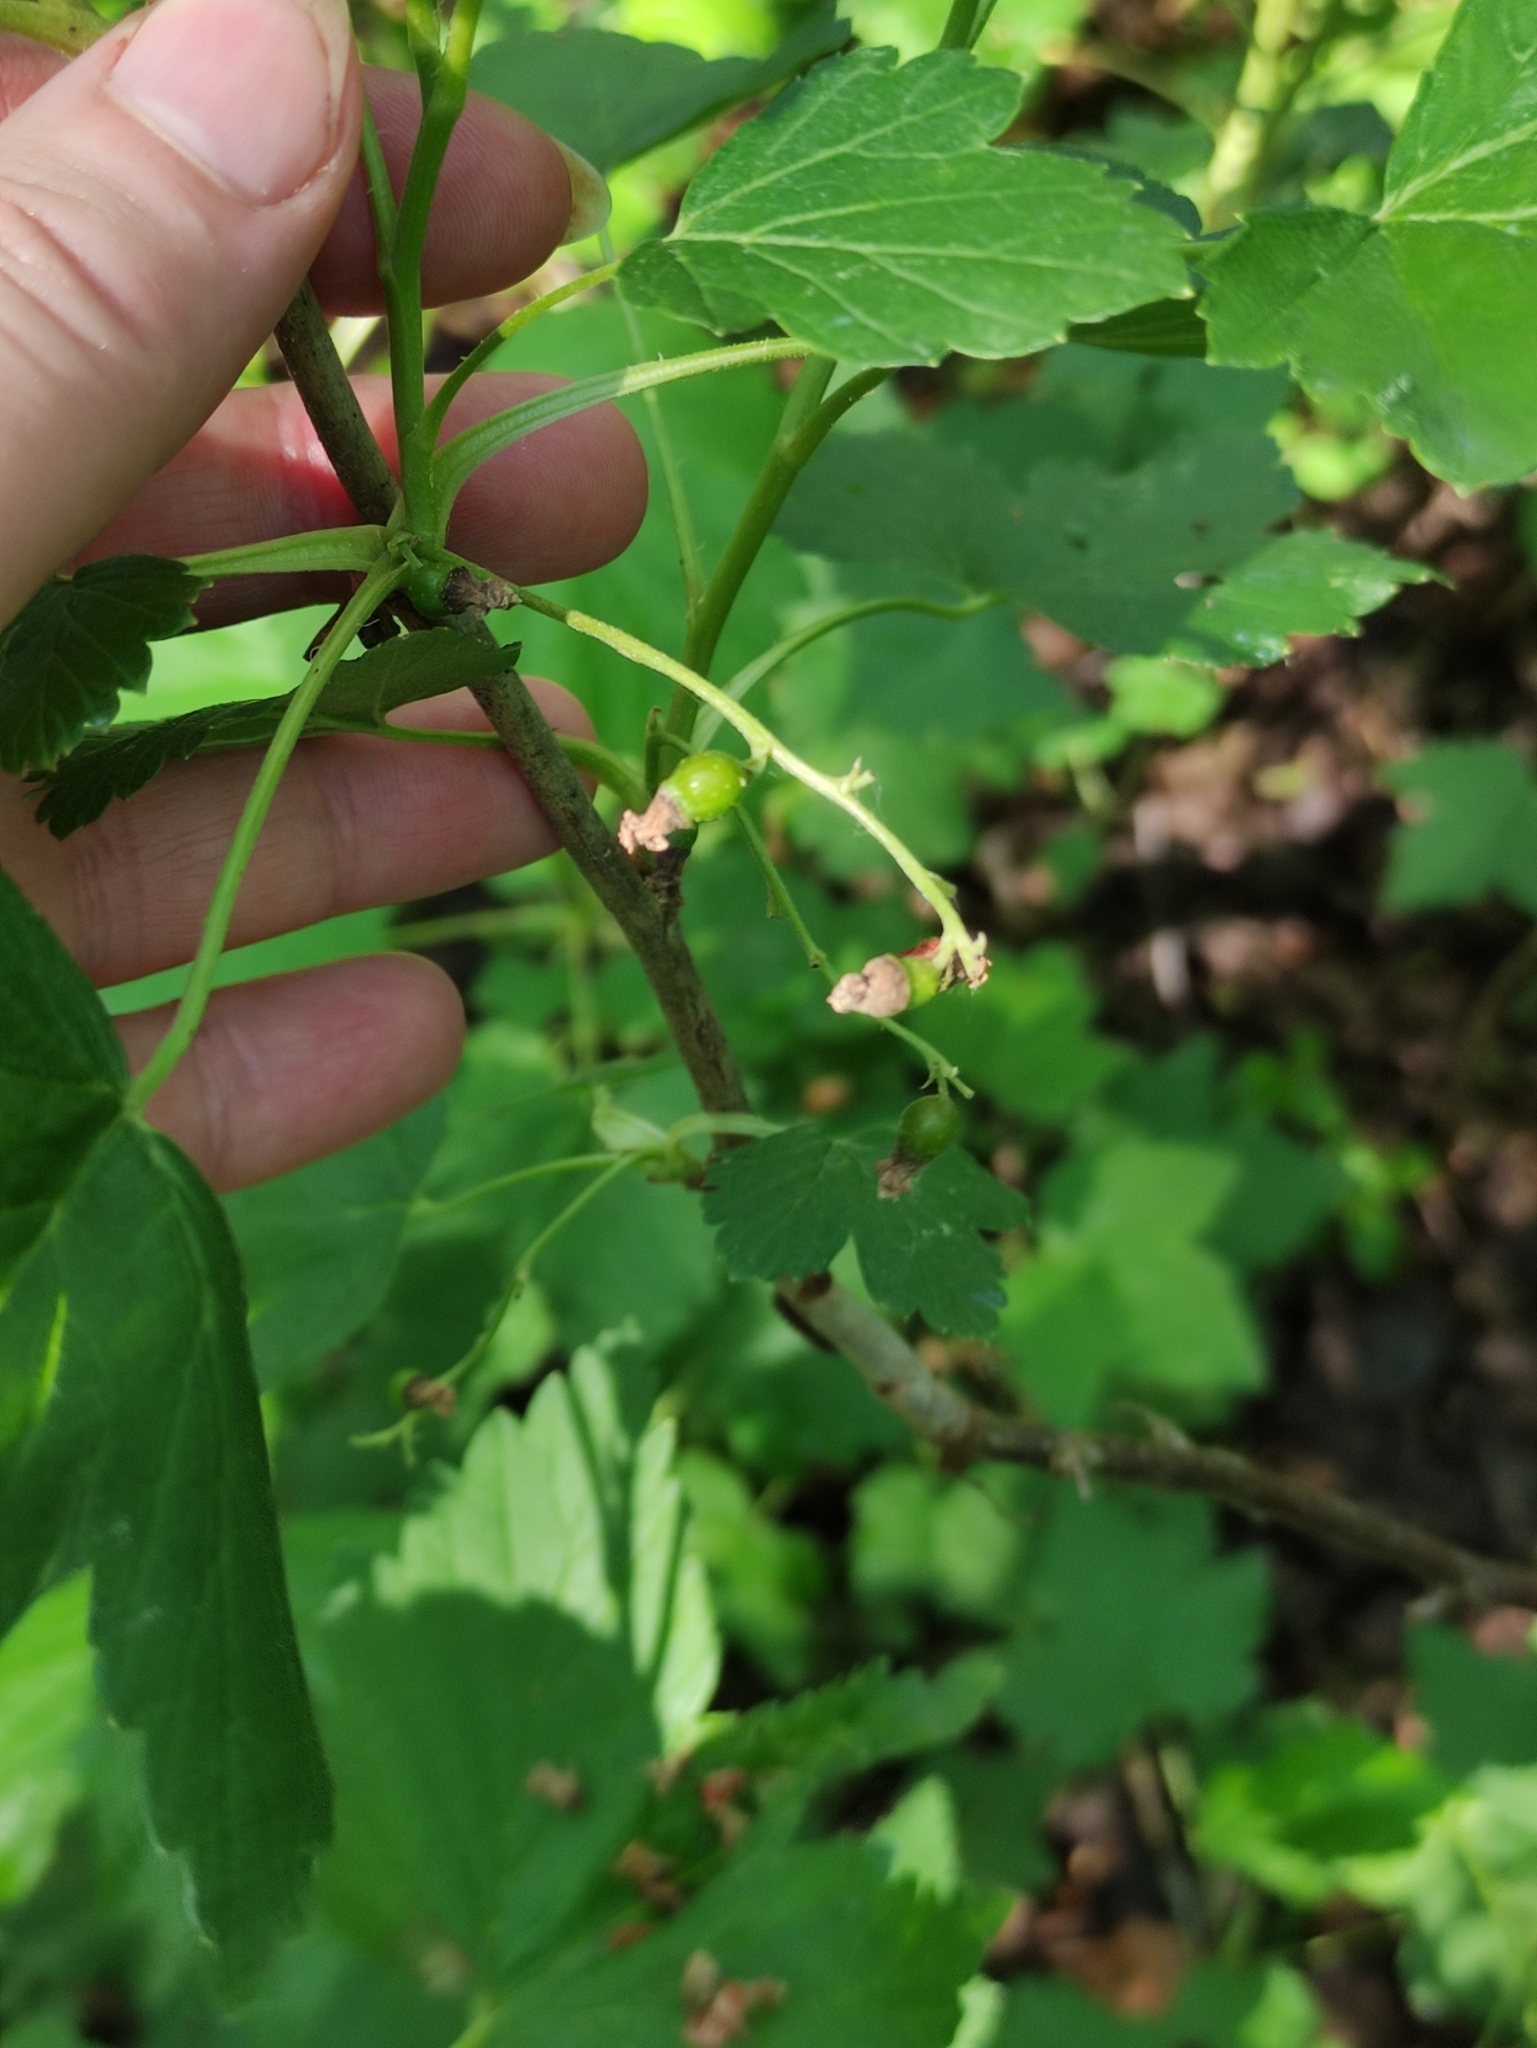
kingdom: Plantae
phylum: Tracheophyta
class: Magnoliopsida
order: Saxifragales
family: Grossulariaceae
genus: Ribes
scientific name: Ribes nigrum
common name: Black currant
